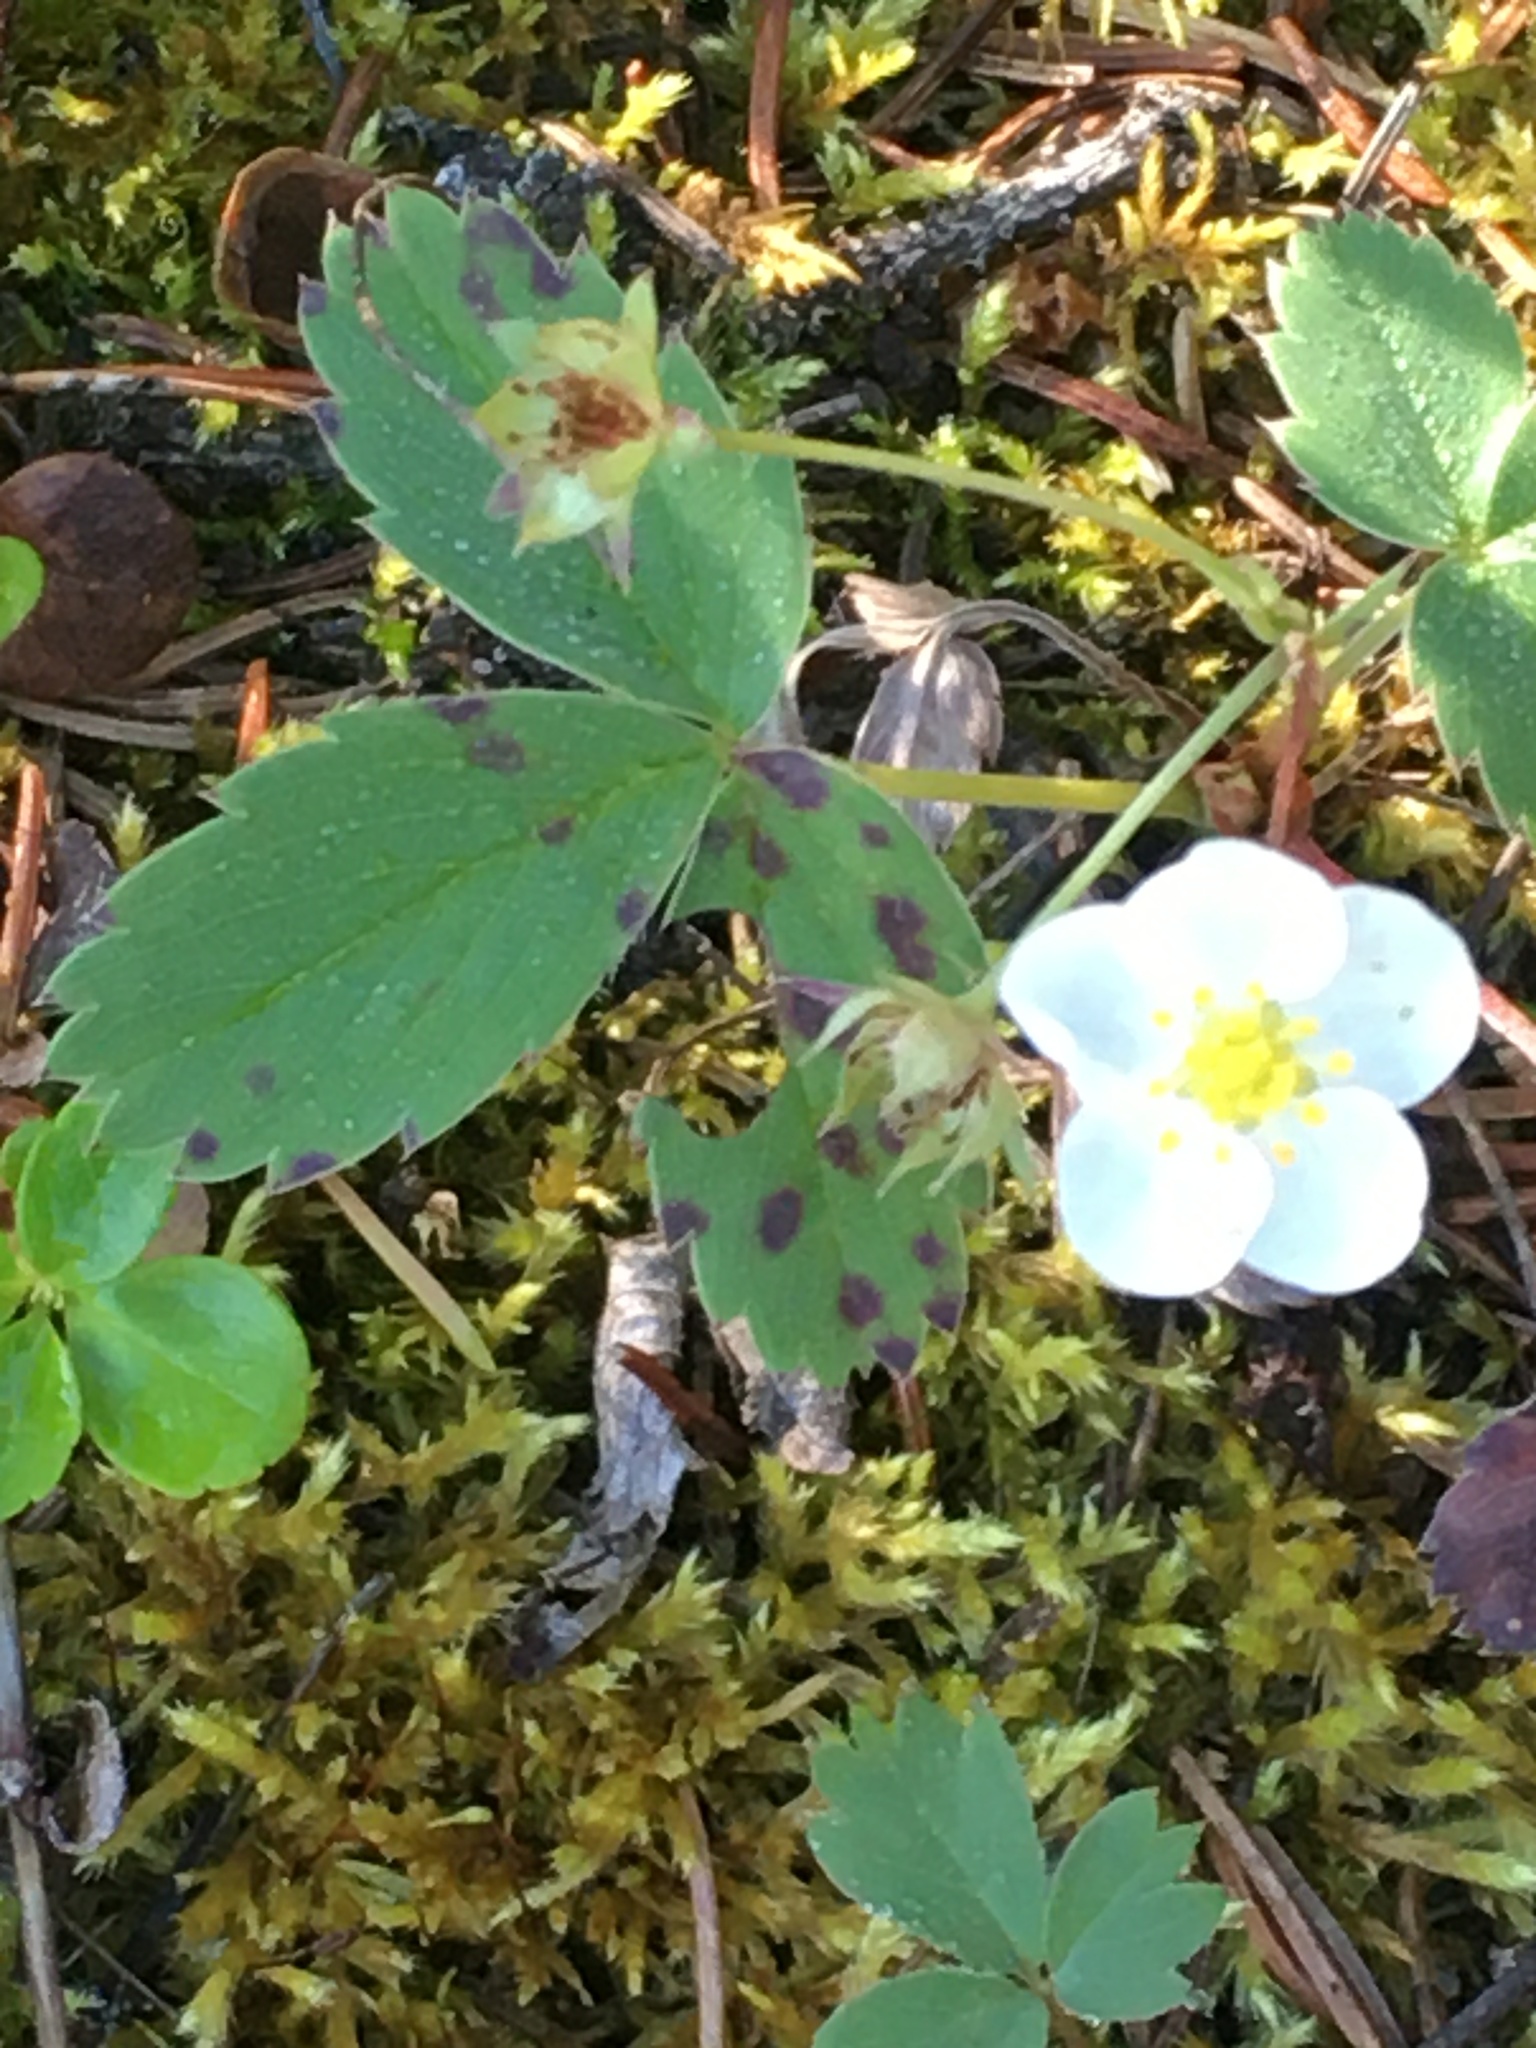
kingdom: Plantae
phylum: Tracheophyta
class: Magnoliopsida
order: Rosales
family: Rosaceae
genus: Fragaria
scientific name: Fragaria virginiana
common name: Thickleaved wild strawberry
